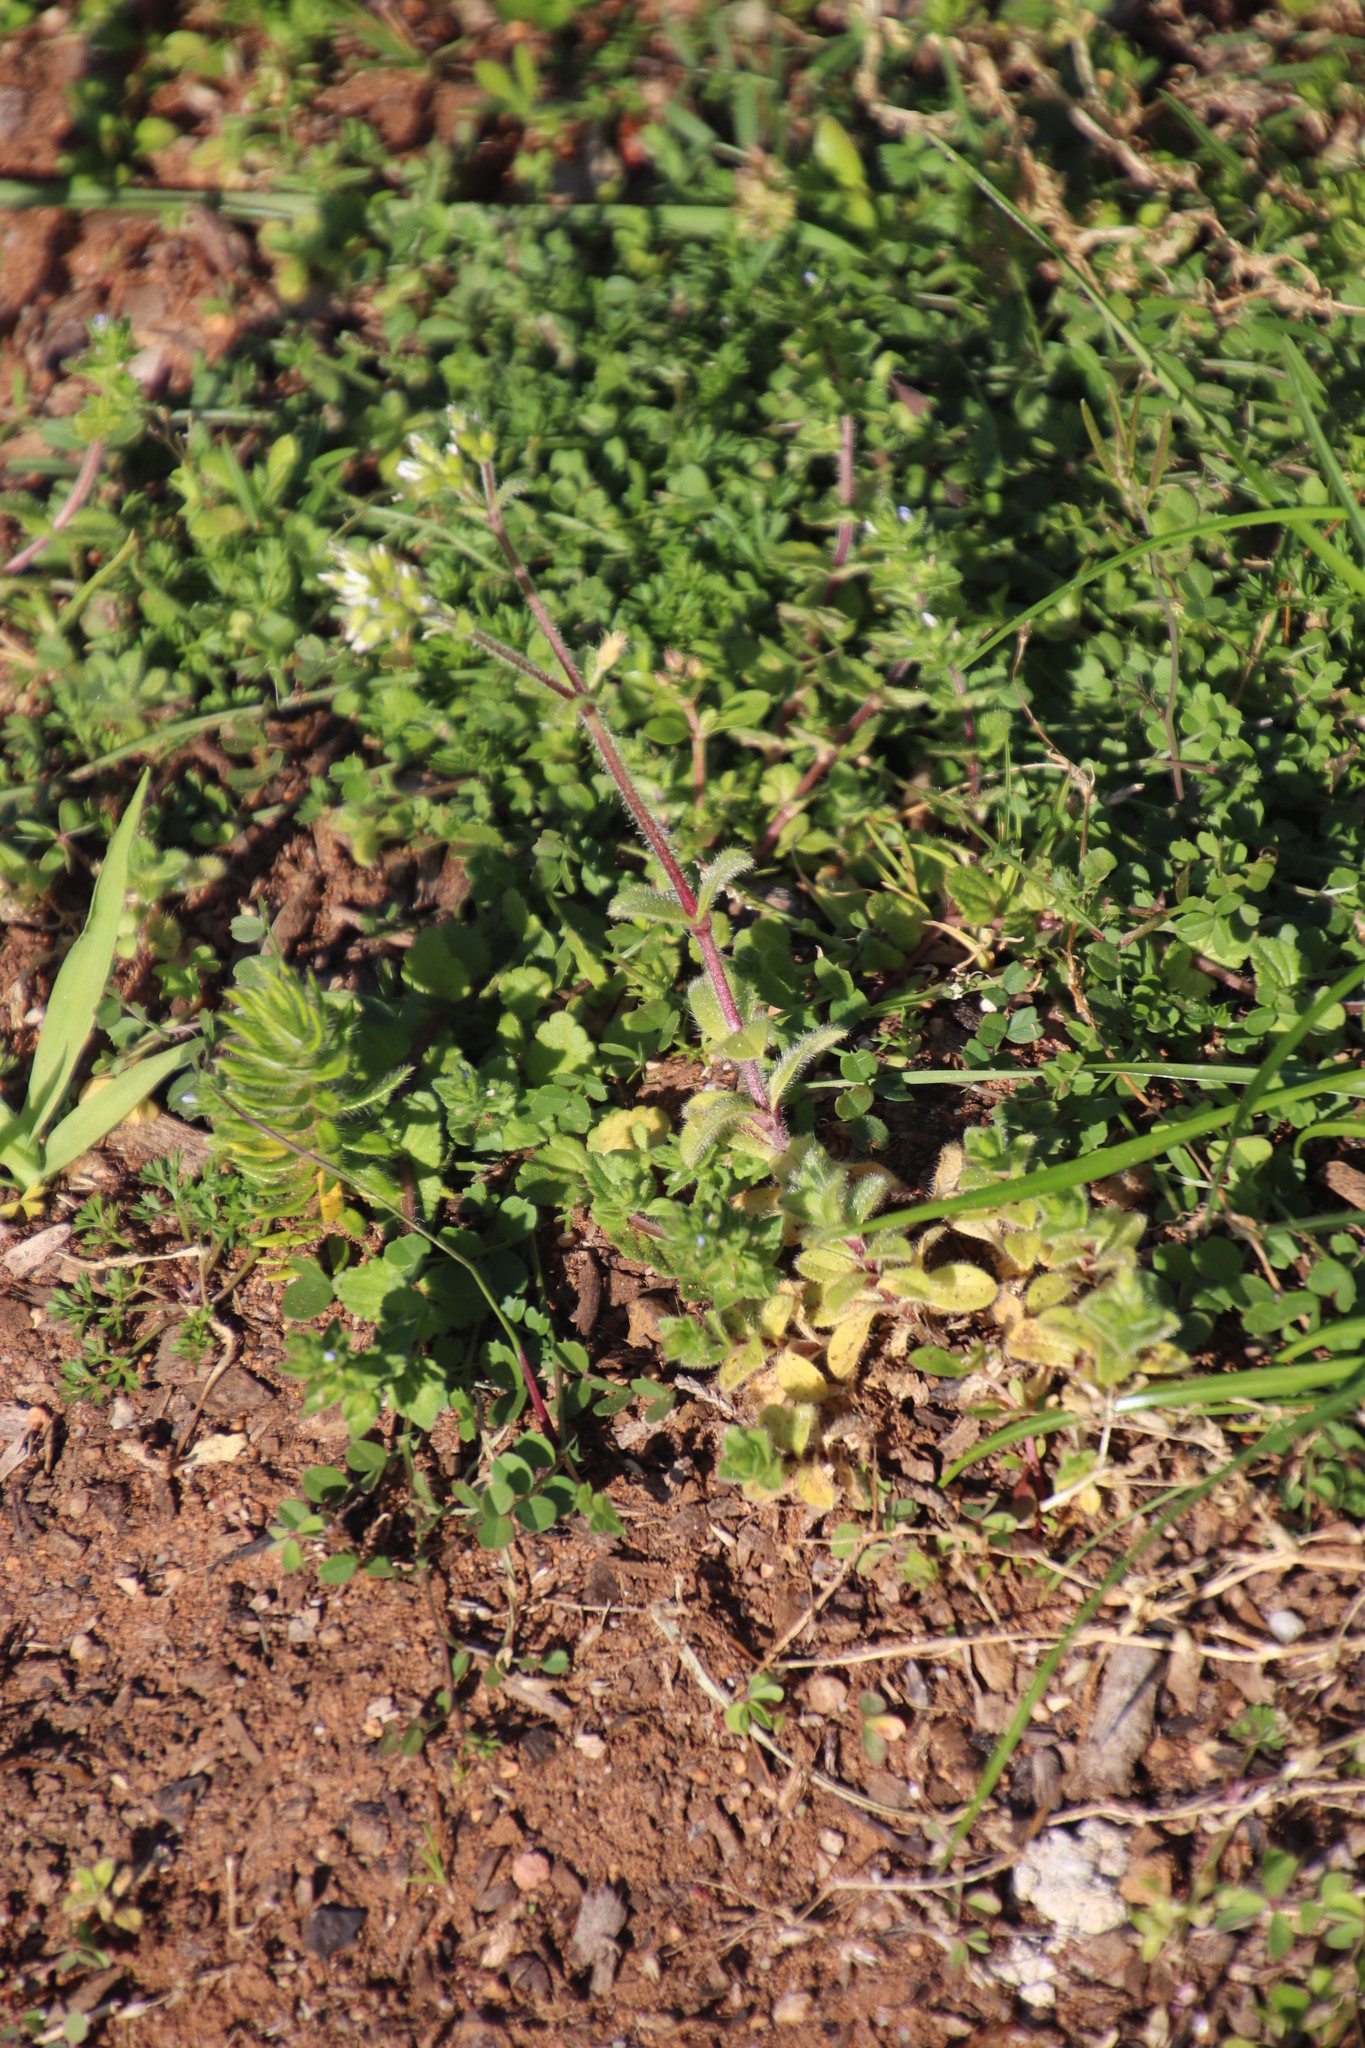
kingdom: Plantae
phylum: Tracheophyta
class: Magnoliopsida
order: Caryophyllales
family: Caryophyllaceae
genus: Cerastium
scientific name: Cerastium glomeratum
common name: Sticky chickweed
